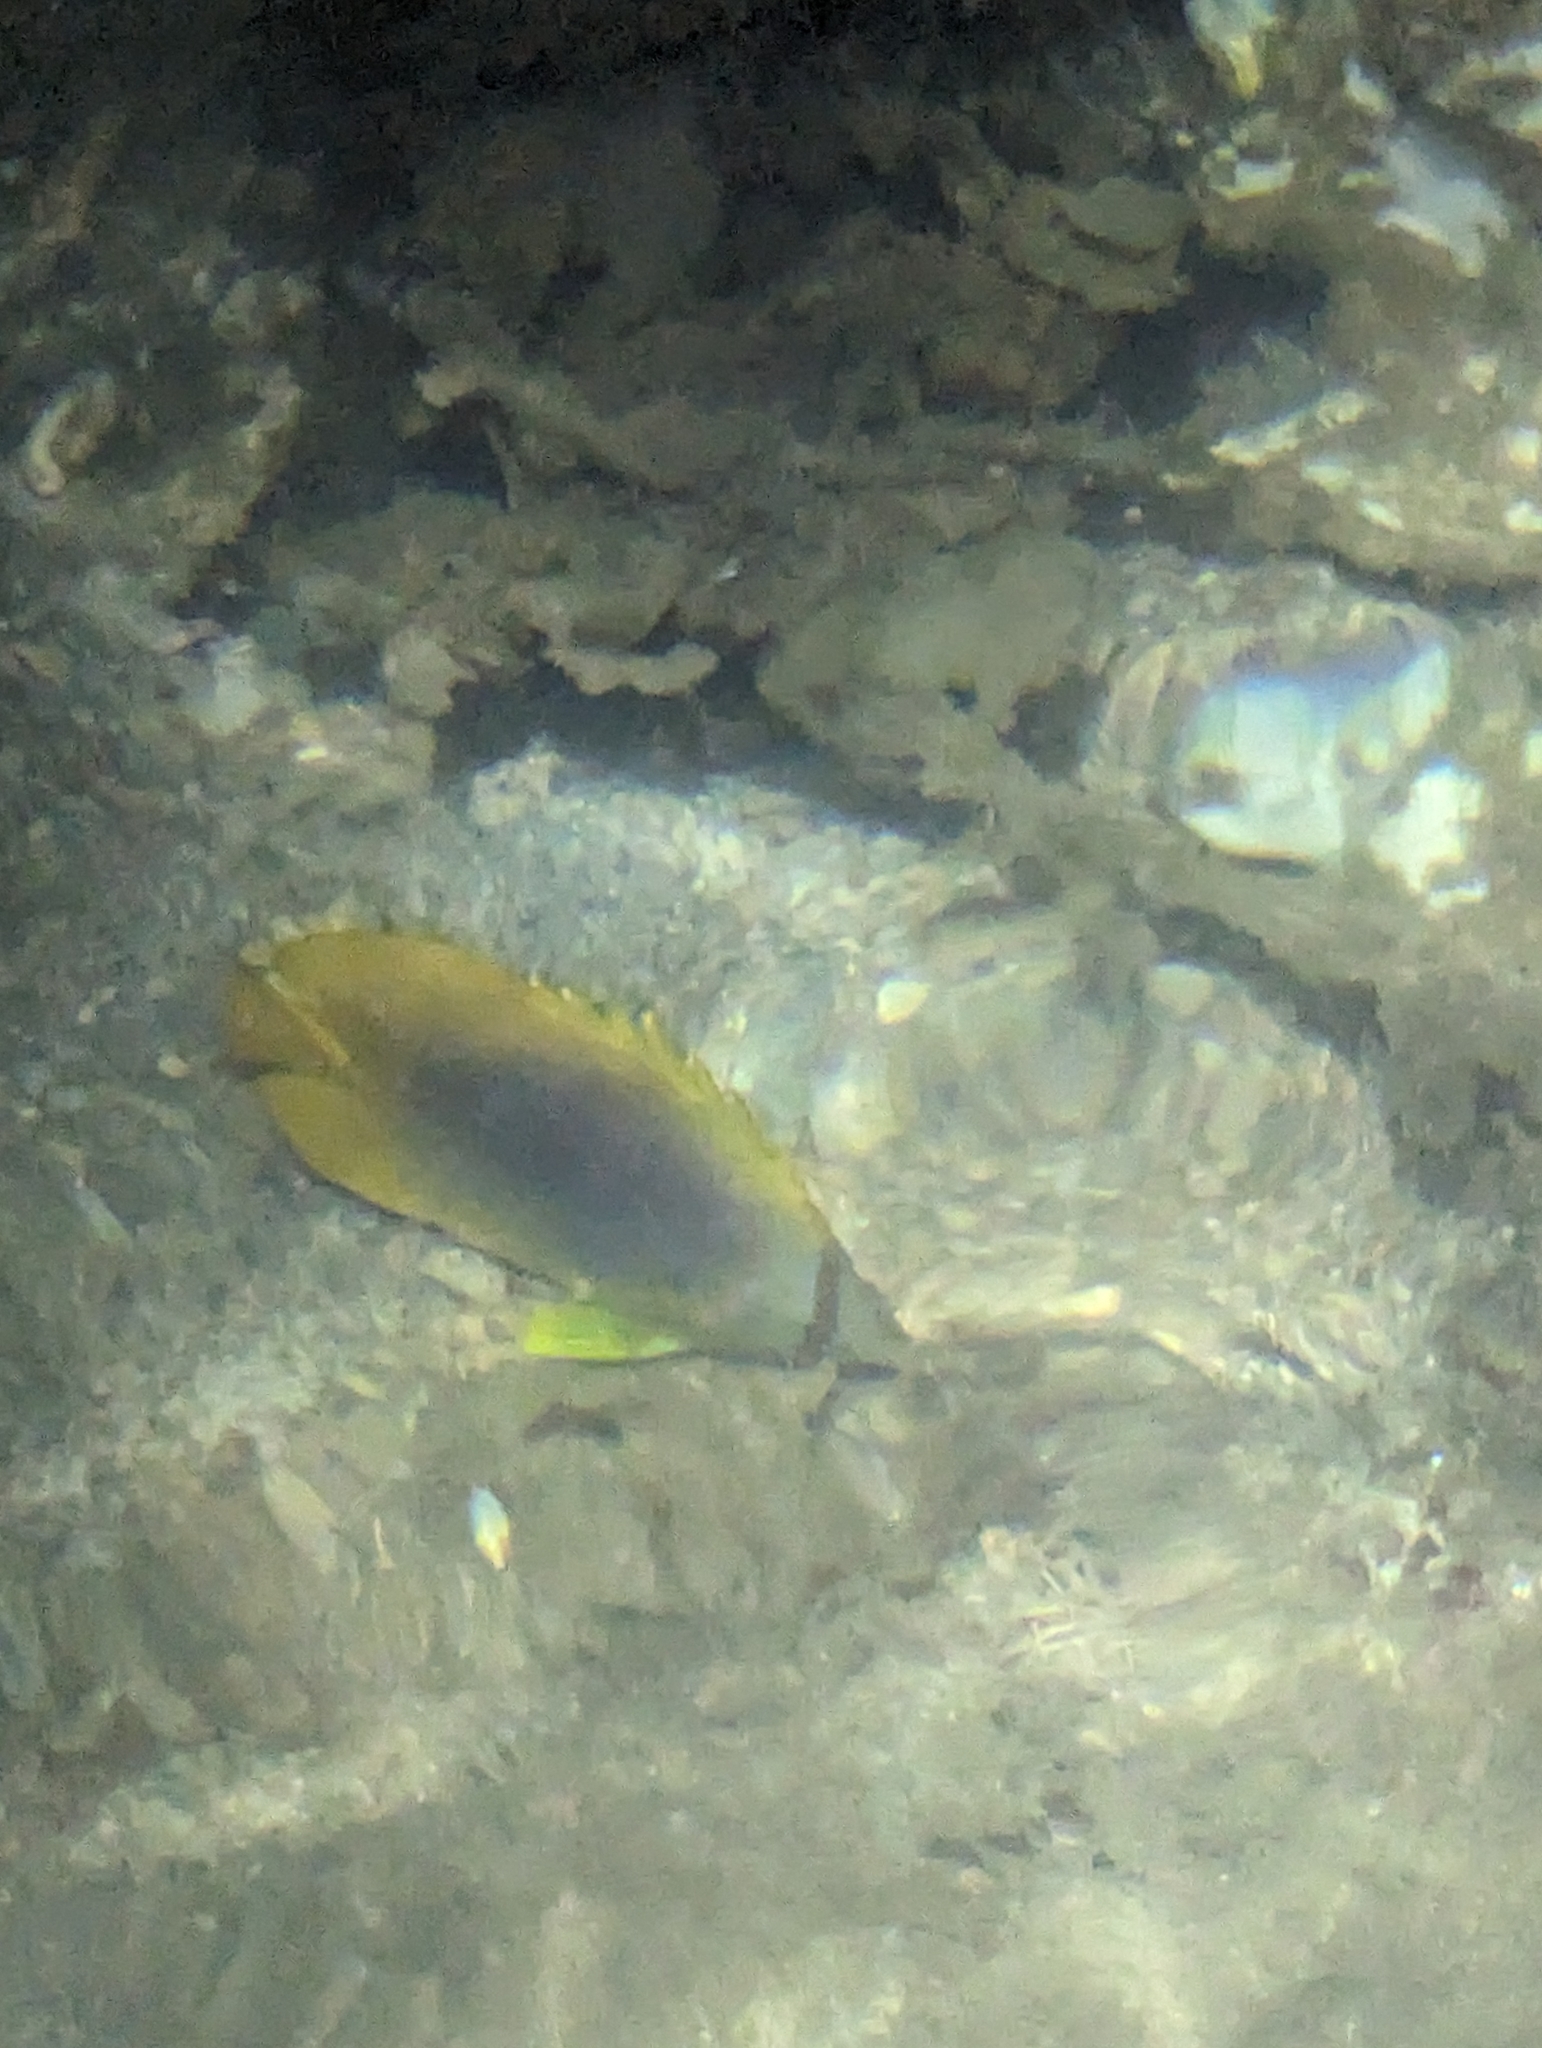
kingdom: Animalia
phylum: Chordata
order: Perciformes
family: Chaetodontidae
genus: Chaetodon
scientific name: Chaetodon aureofasciatus
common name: Golden butterflyfish
